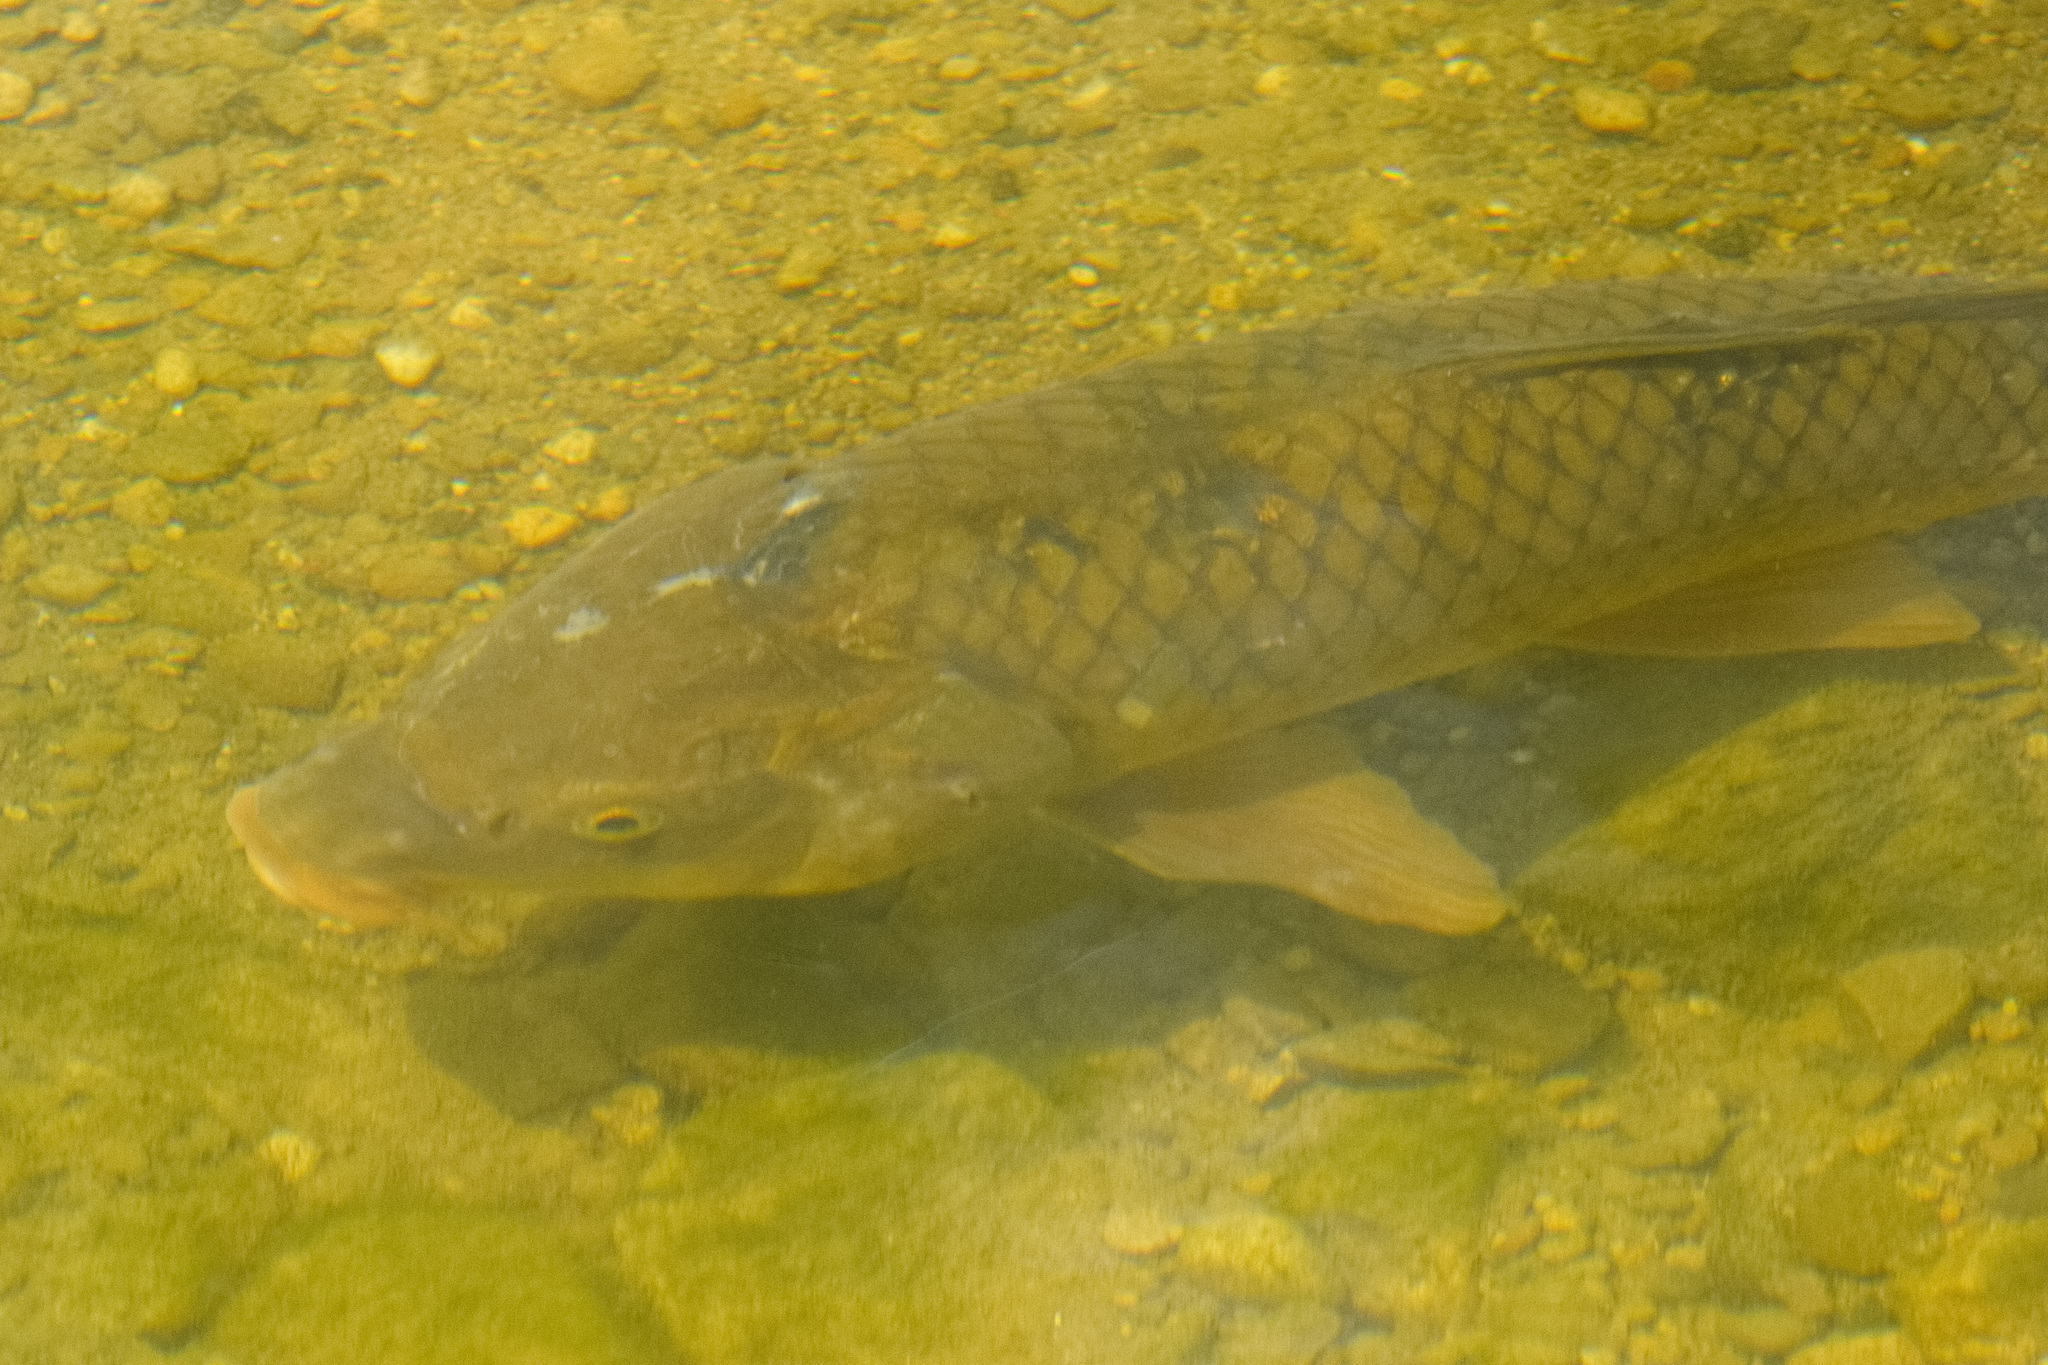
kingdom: Animalia
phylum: Chordata
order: Cypriniformes
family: Cyprinidae
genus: Cyprinus
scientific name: Cyprinus carpio
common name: Common carp
